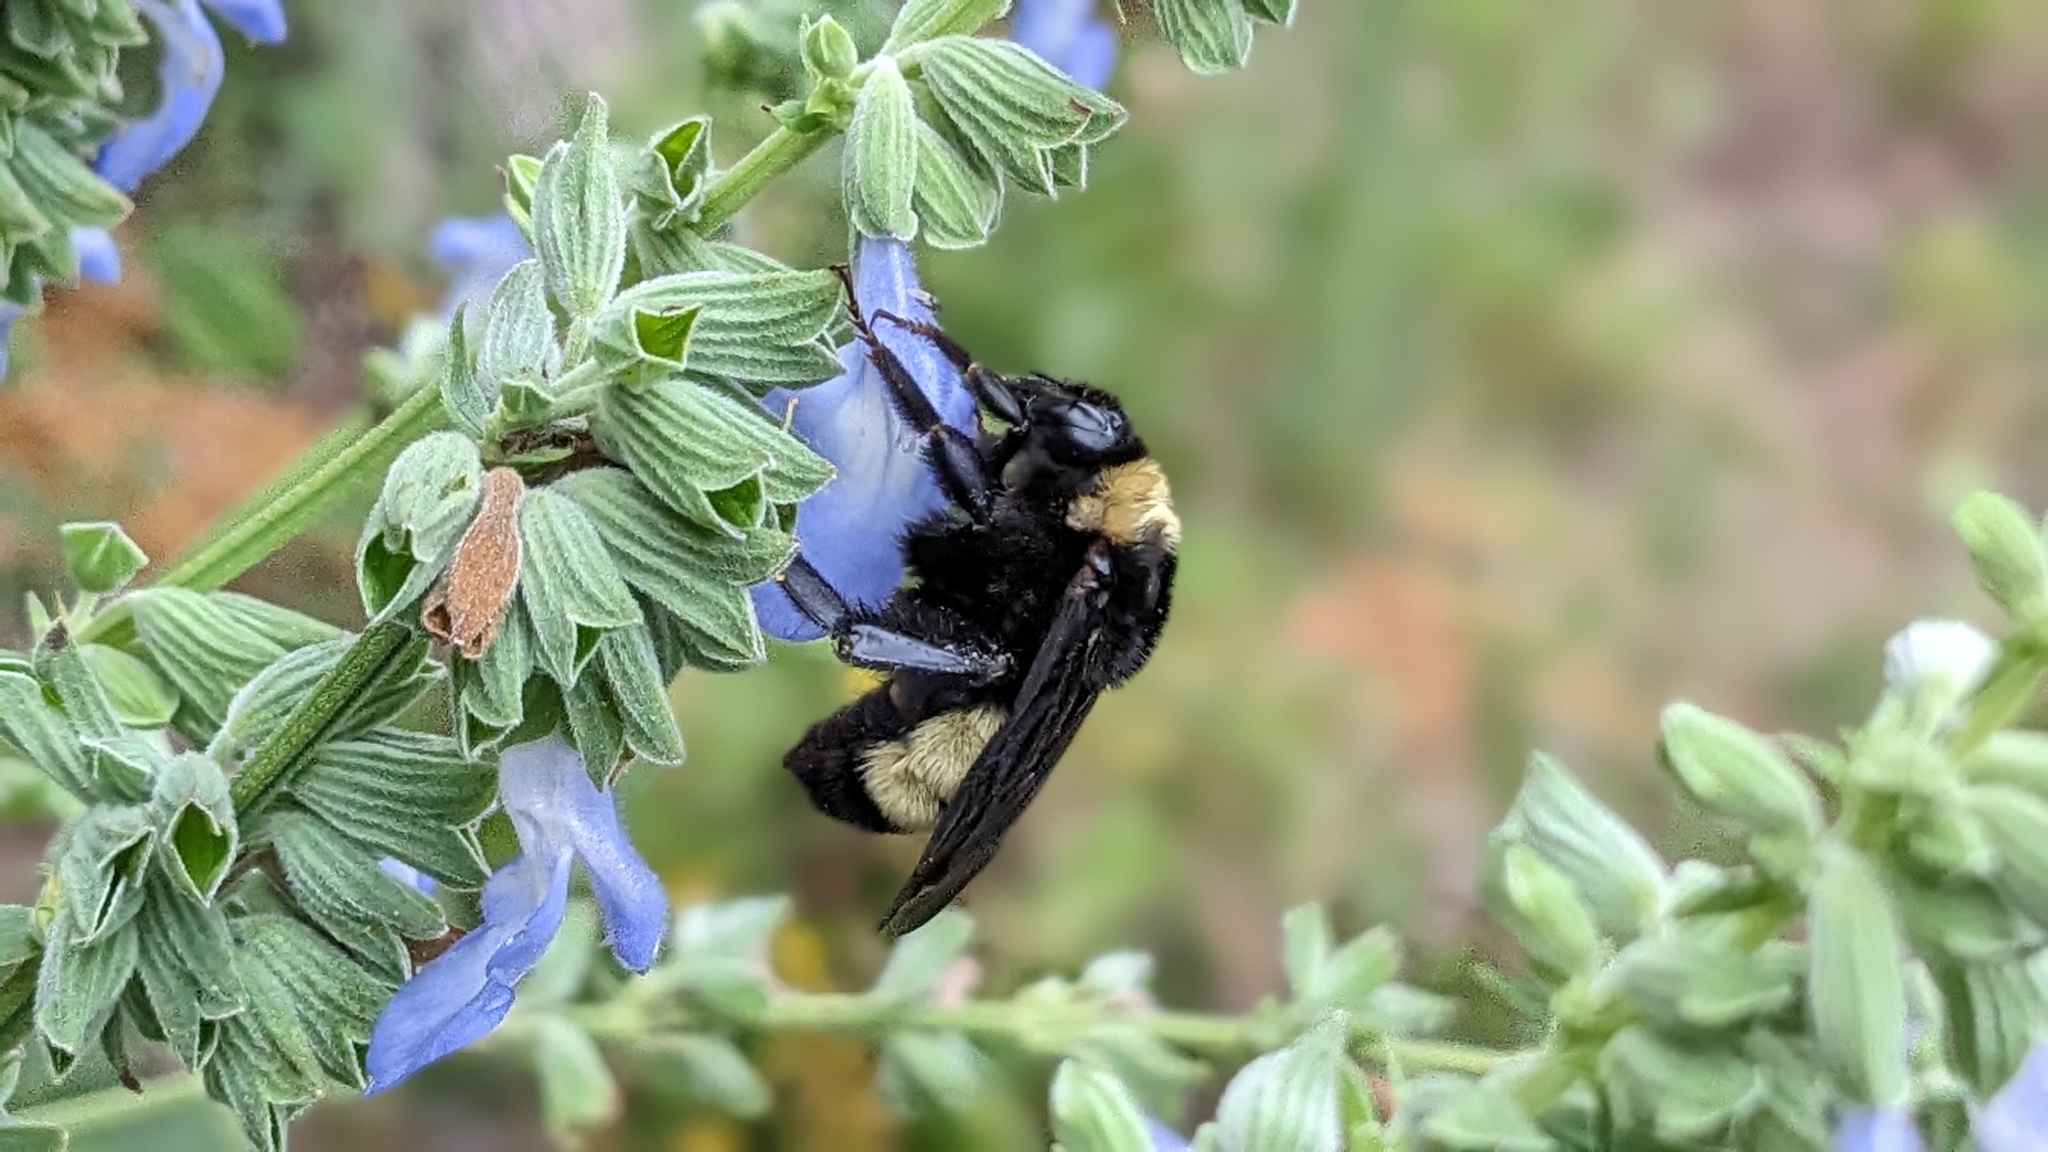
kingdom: Animalia
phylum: Arthropoda
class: Insecta
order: Hymenoptera
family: Apidae
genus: Bombus
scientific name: Bombus pensylvanicus
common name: Bumble bee
